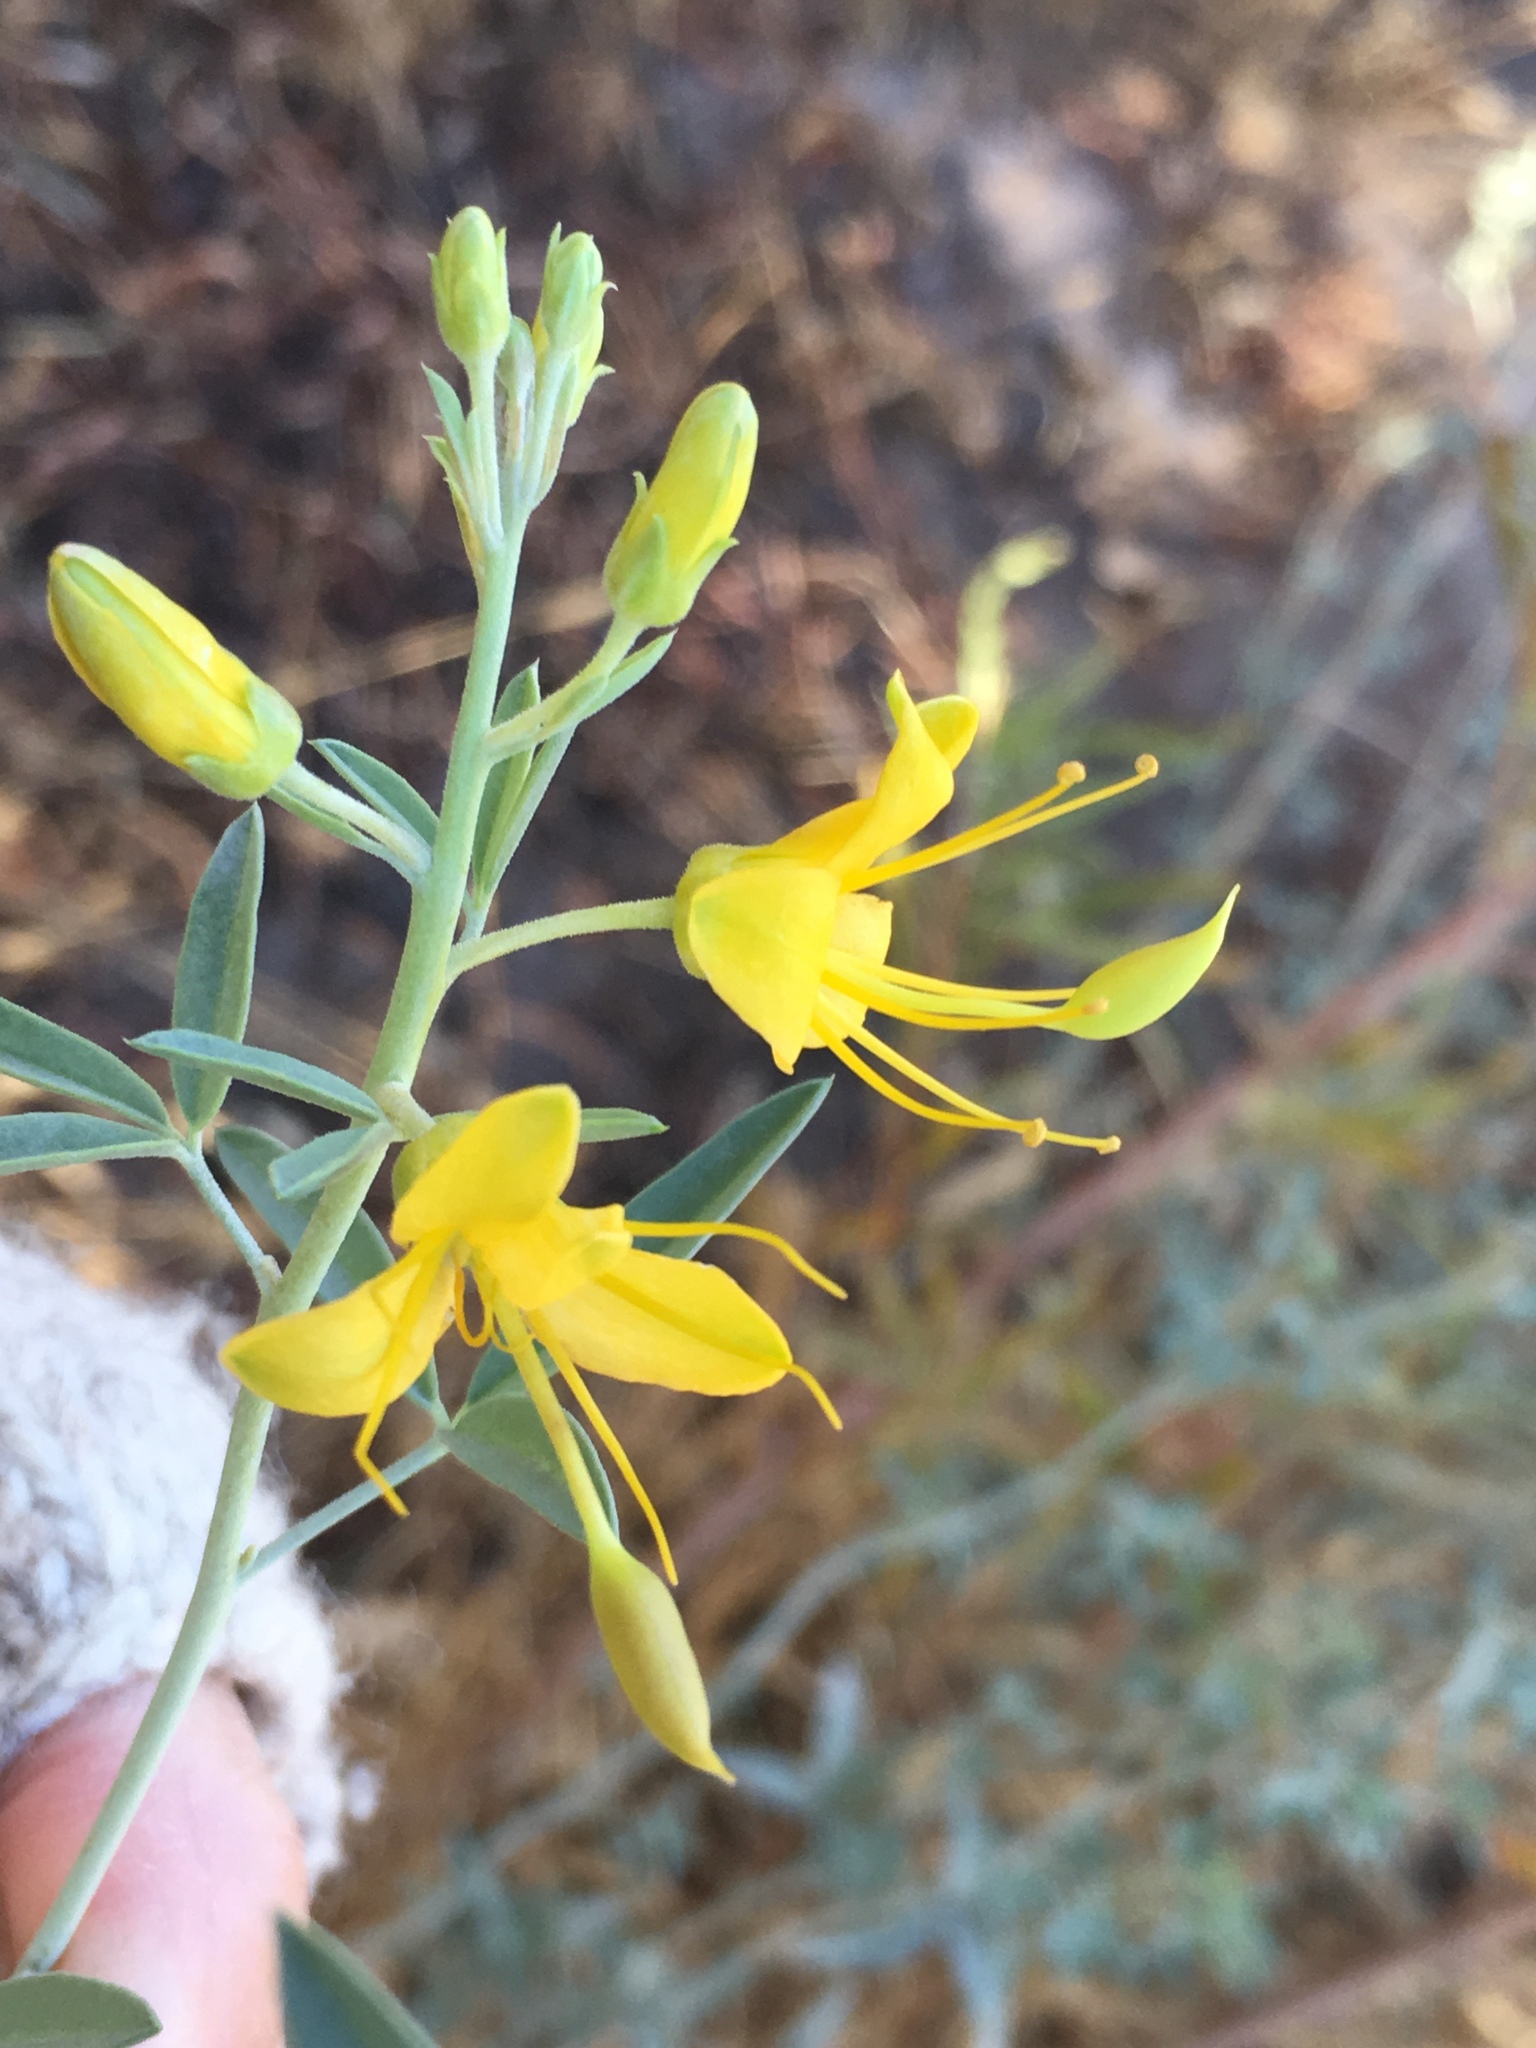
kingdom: Plantae
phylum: Tracheophyta
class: Magnoliopsida
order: Brassicales
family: Cleomaceae
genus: Cleomella
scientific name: Cleomella arborea
